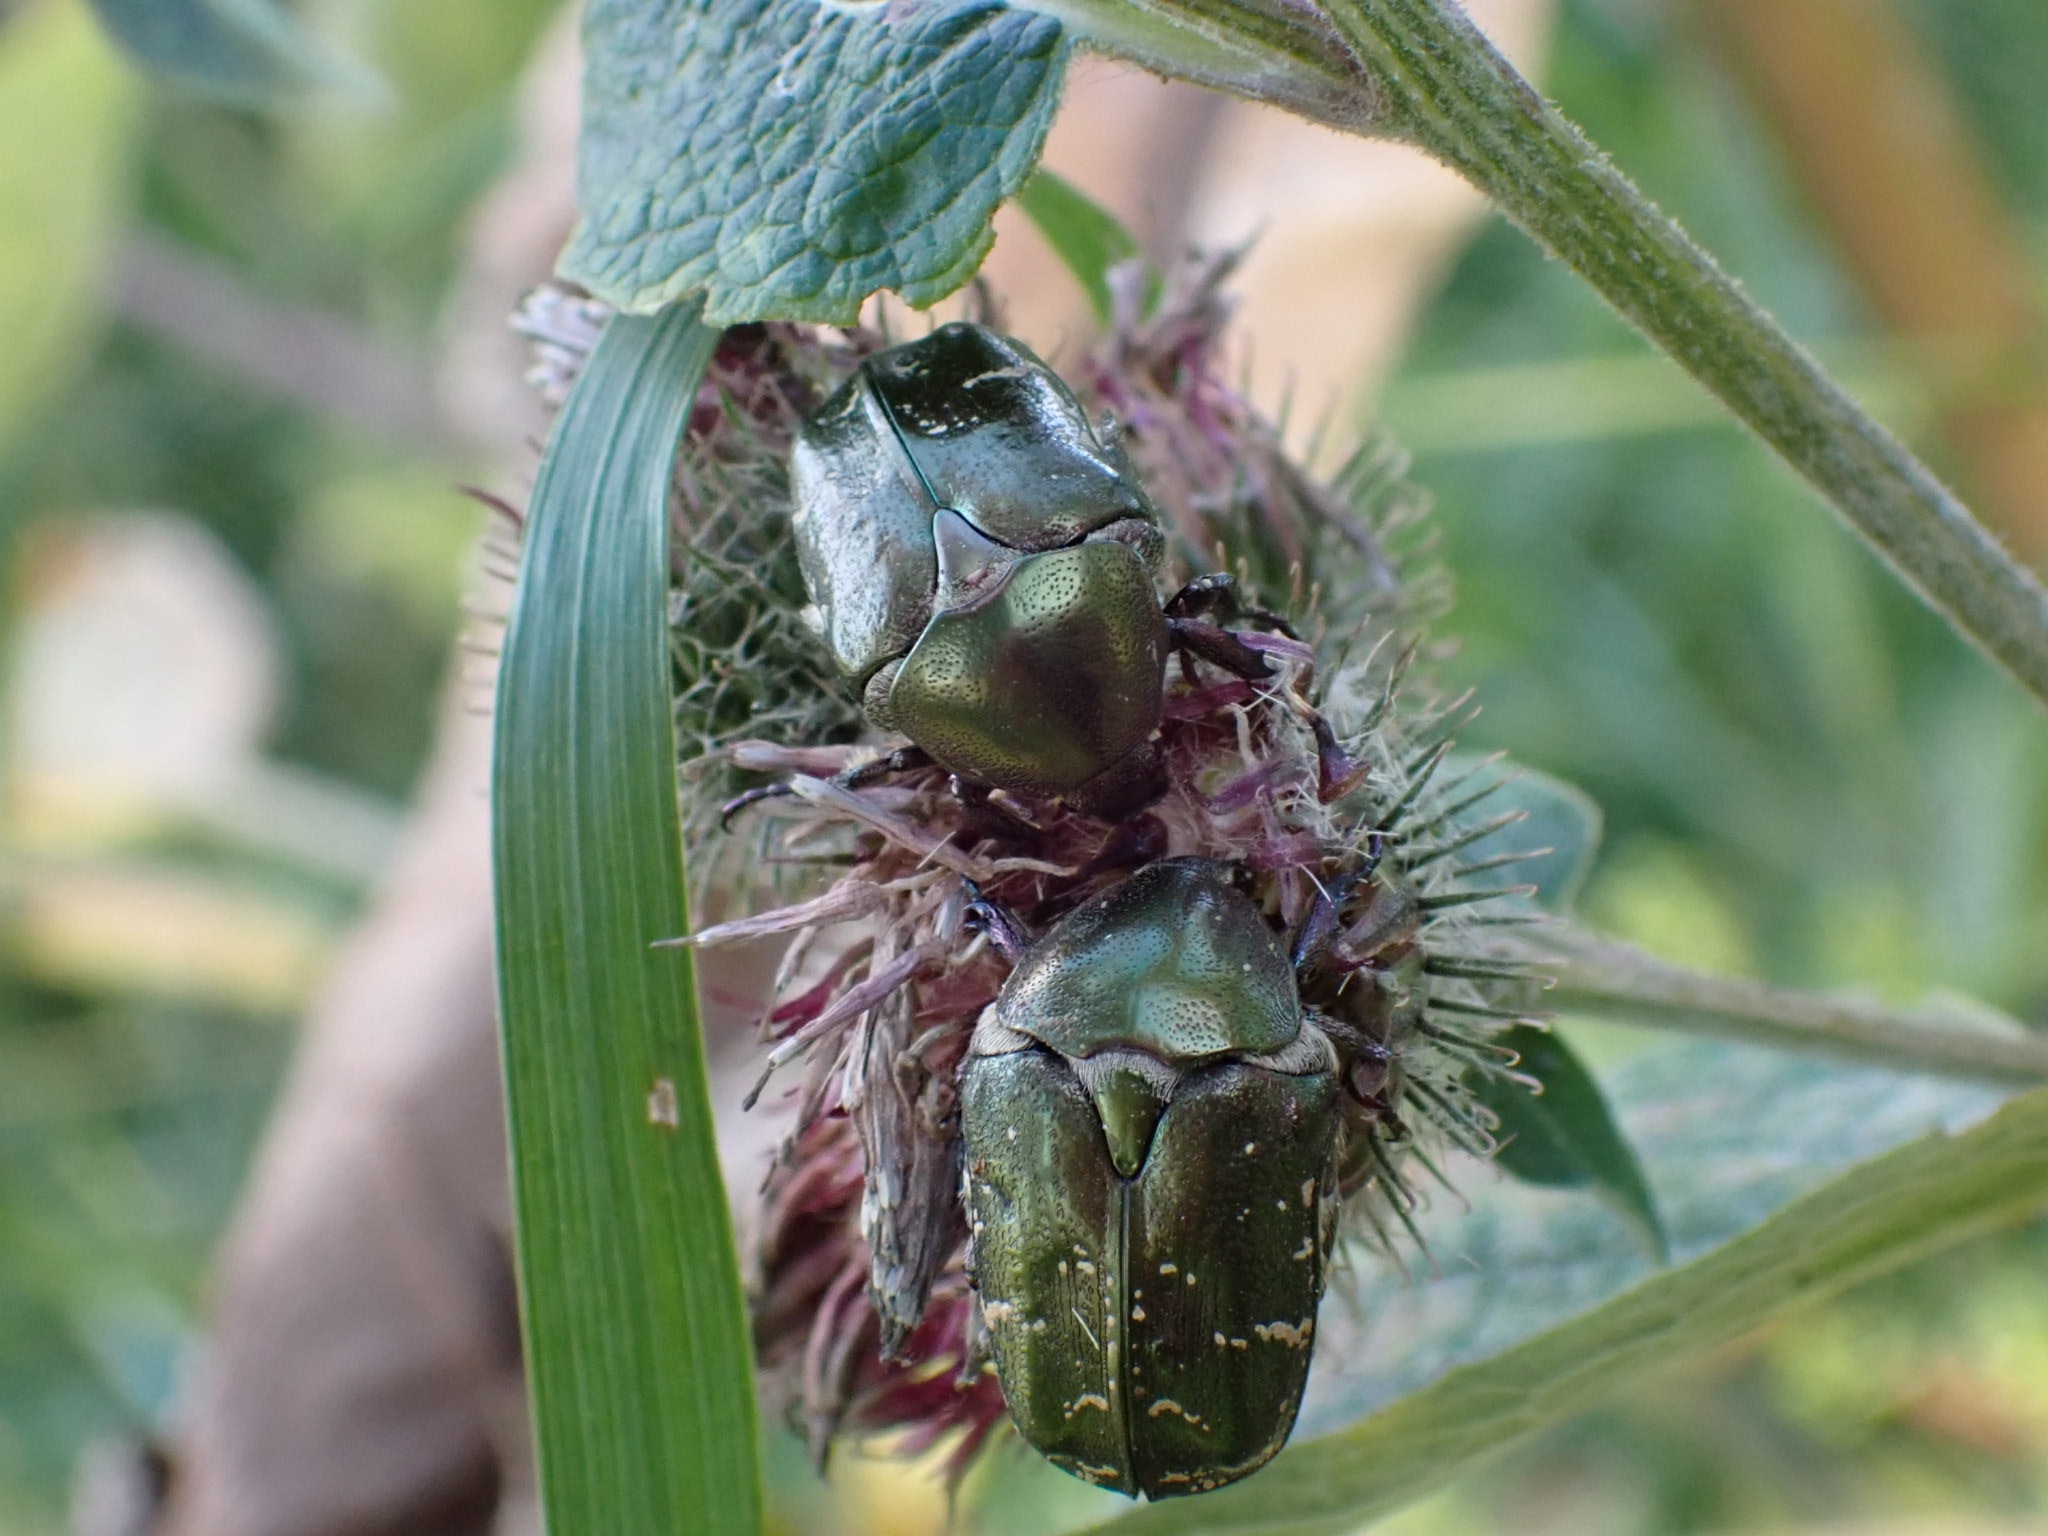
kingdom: Animalia
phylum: Arthropoda
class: Insecta
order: Coleoptera
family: Scarabaeidae
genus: Protaetia
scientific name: Protaetia cuprea
